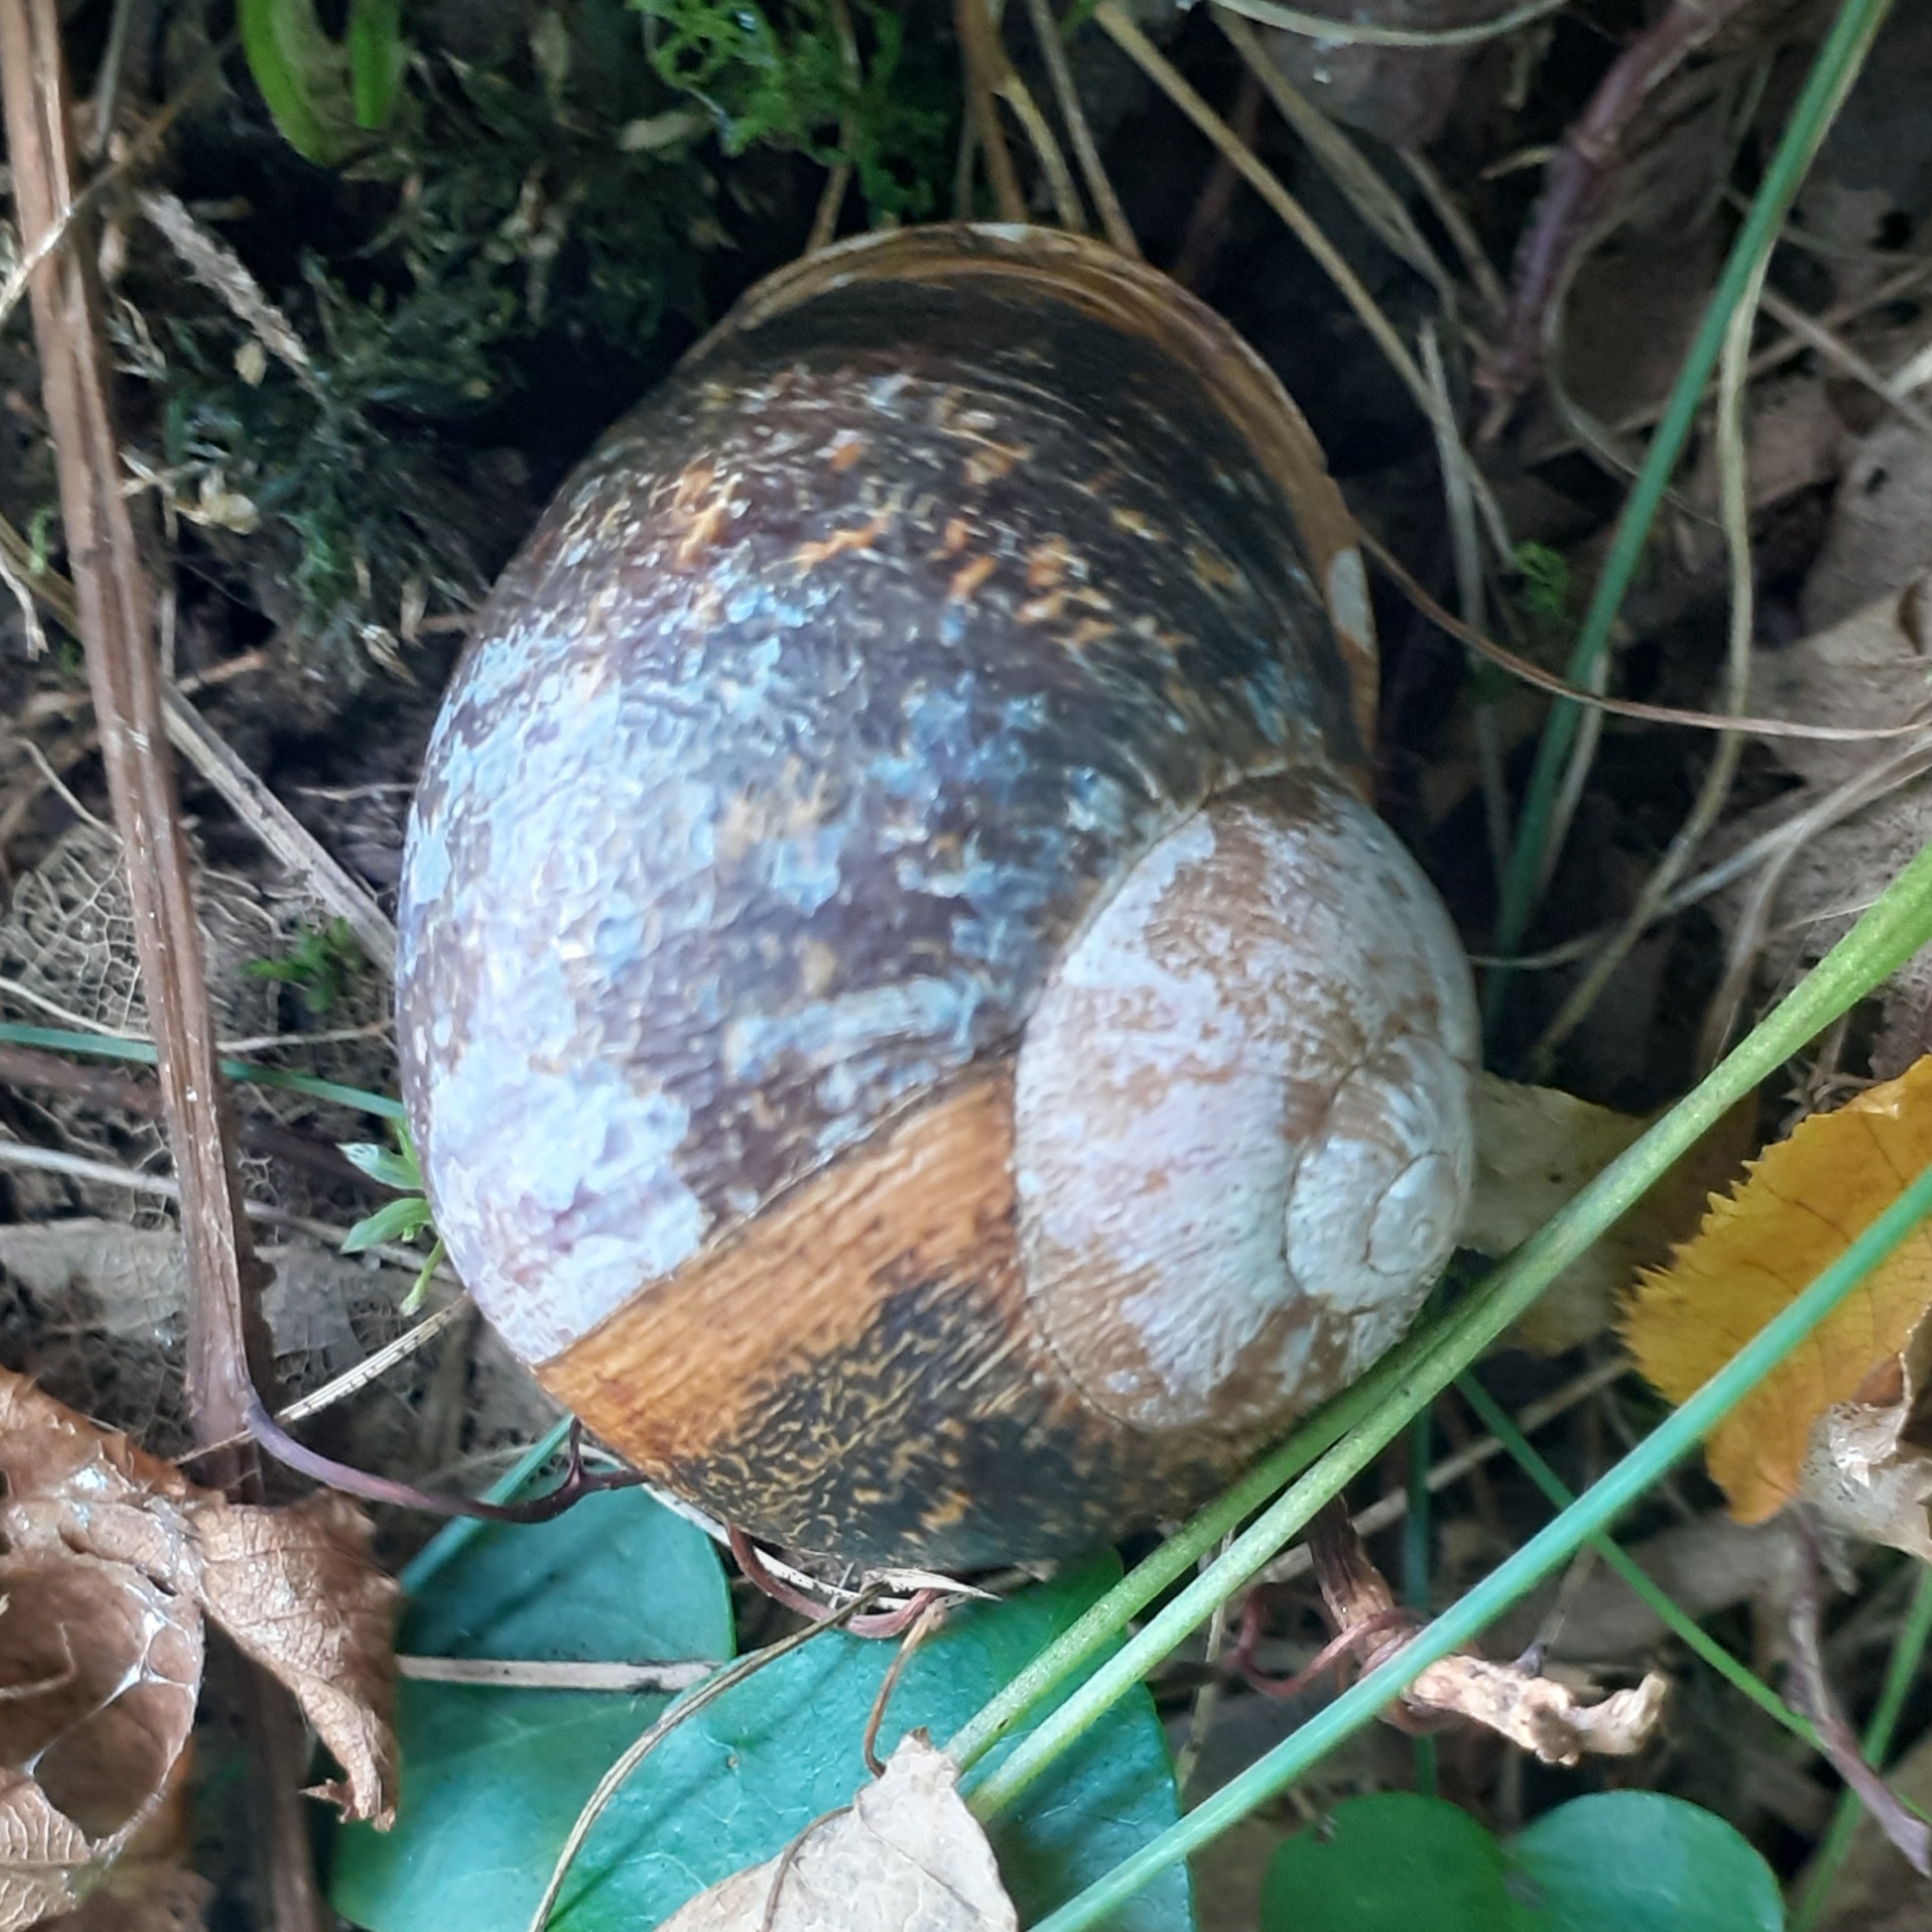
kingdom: Animalia
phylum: Mollusca
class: Gastropoda
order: Stylommatophora
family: Helicidae
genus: Cornu
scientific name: Cornu aspersum
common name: Brown garden snail
